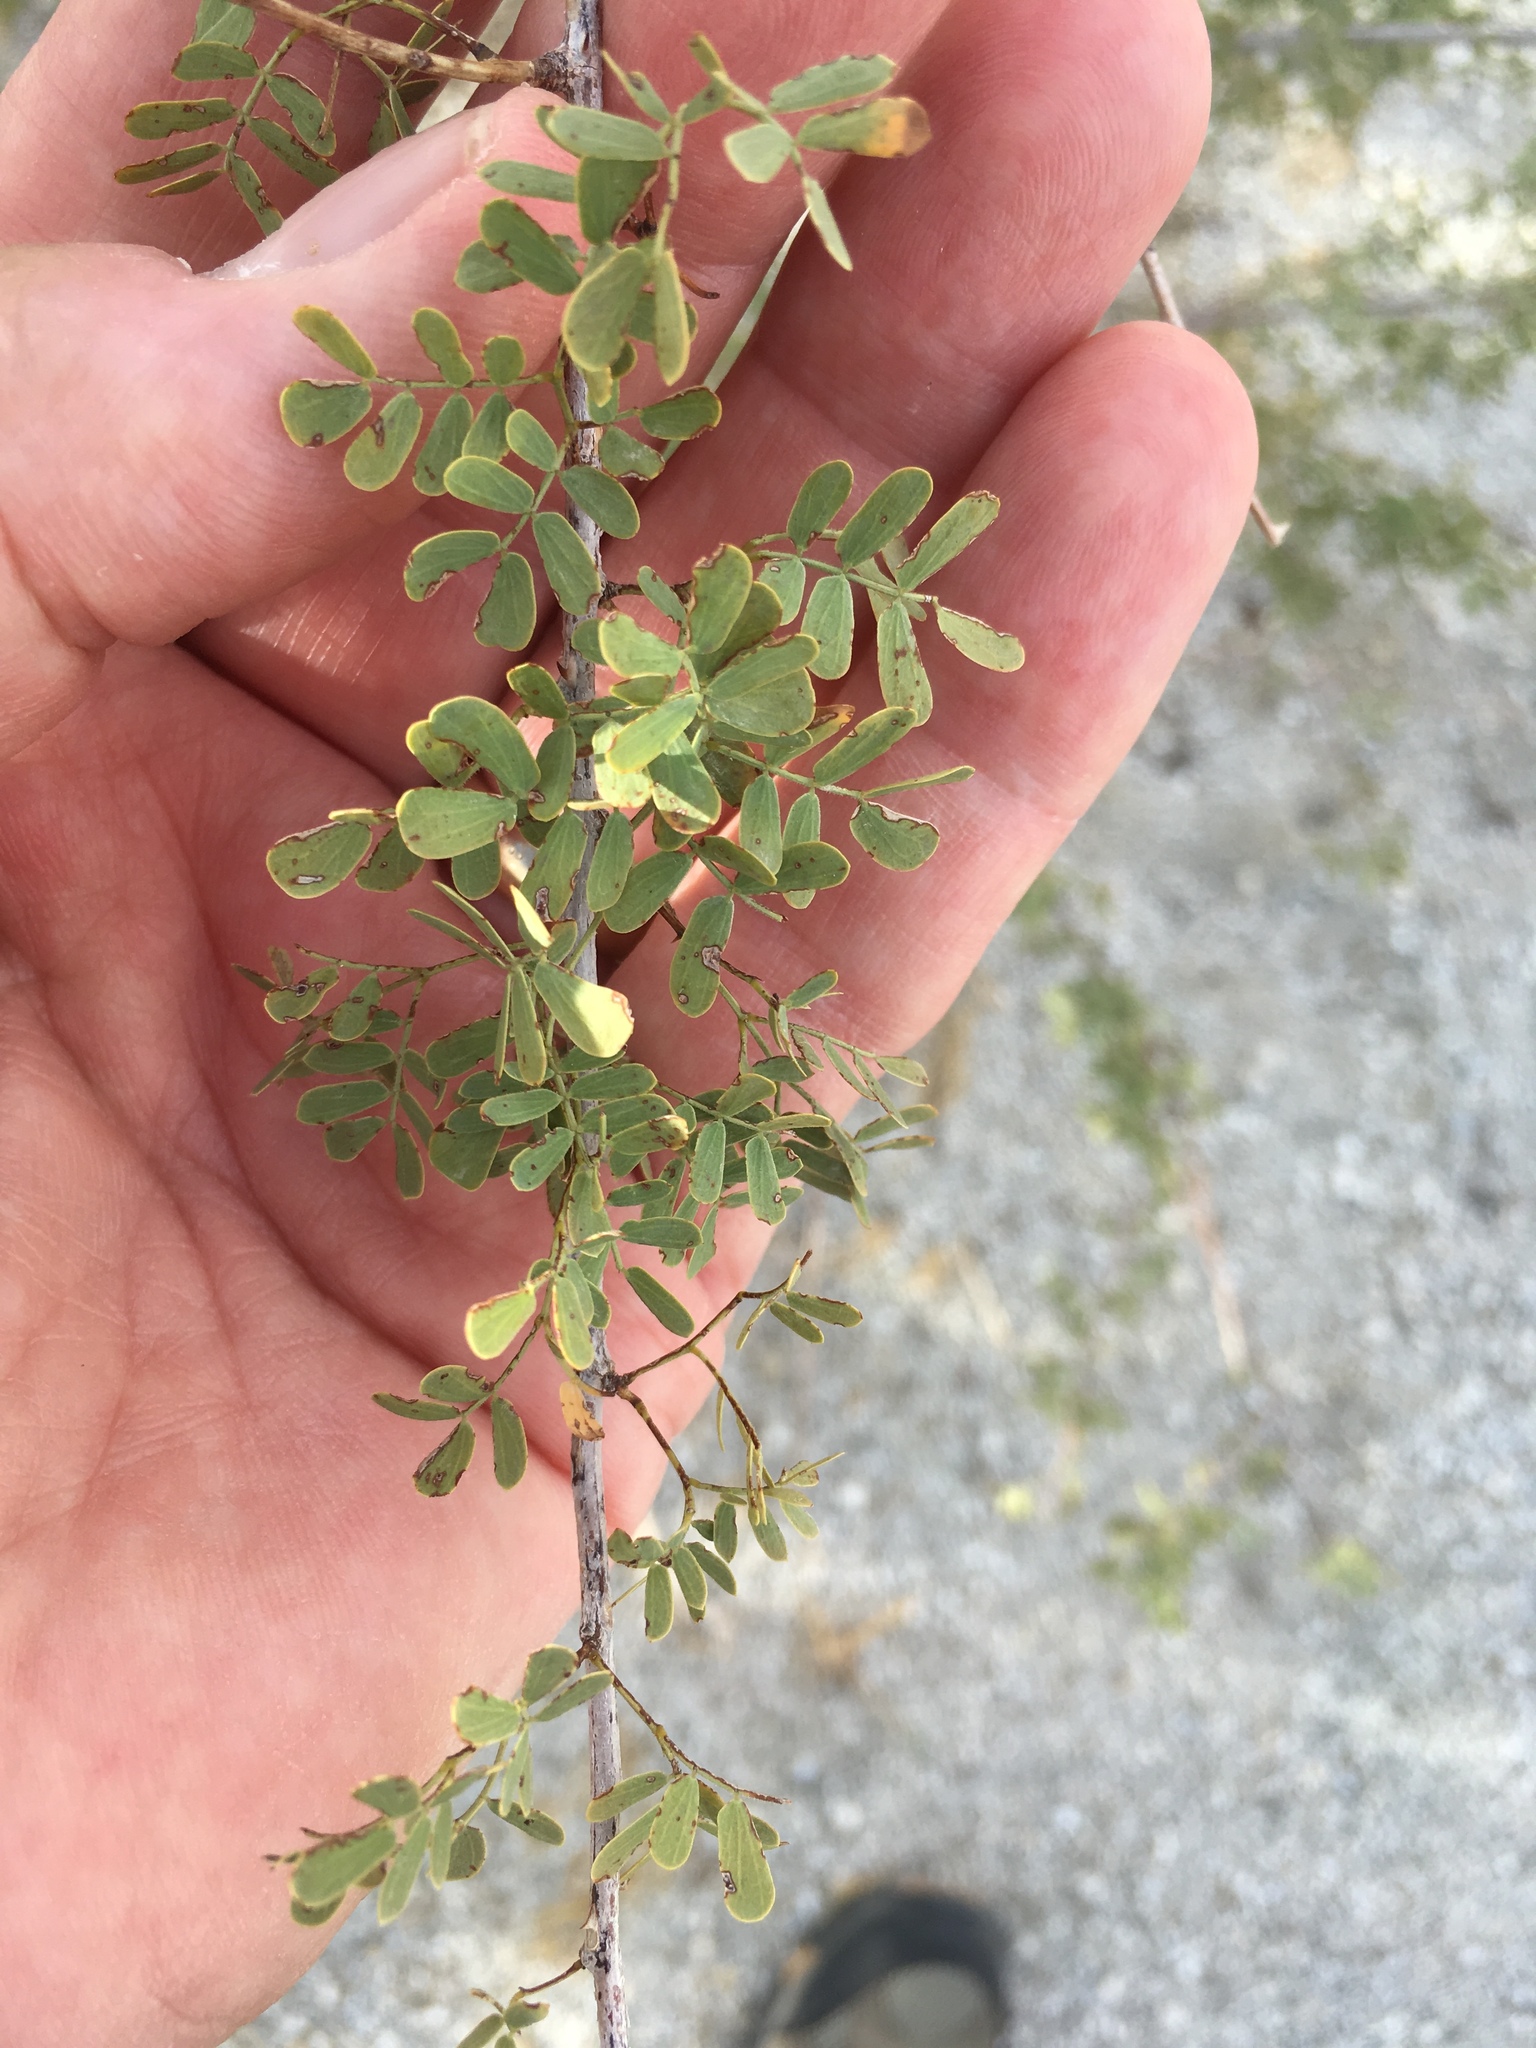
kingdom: Plantae
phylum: Tracheophyta
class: Magnoliopsida
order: Fabales
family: Fabaceae
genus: Senegalia
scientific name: Senegalia greggii
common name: Texas-mimosa
